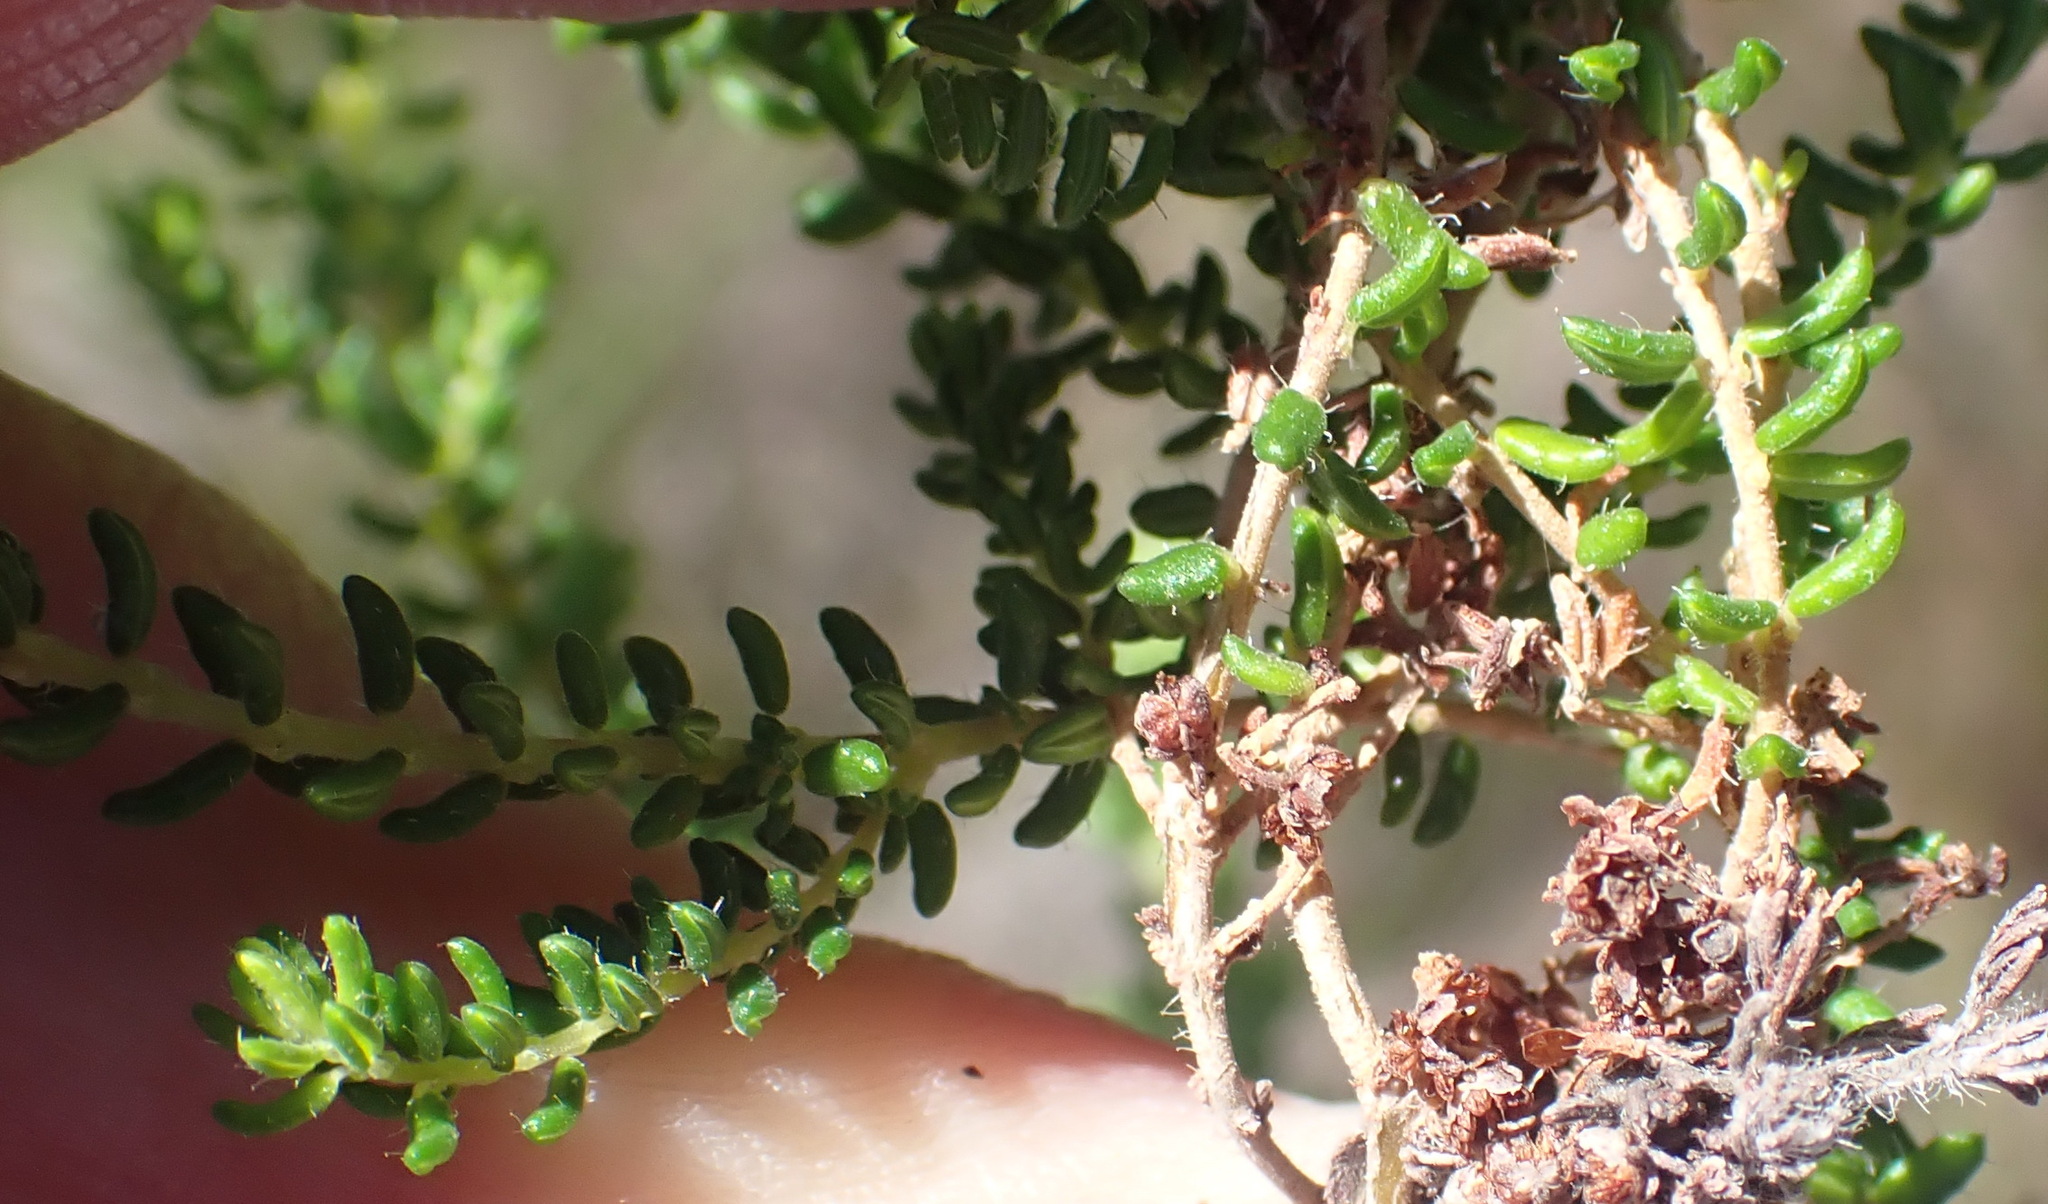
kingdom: Plantae
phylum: Tracheophyta
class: Magnoliopsida
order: Ericales
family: Ericaceae
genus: Erica
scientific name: Erica leucopelta
